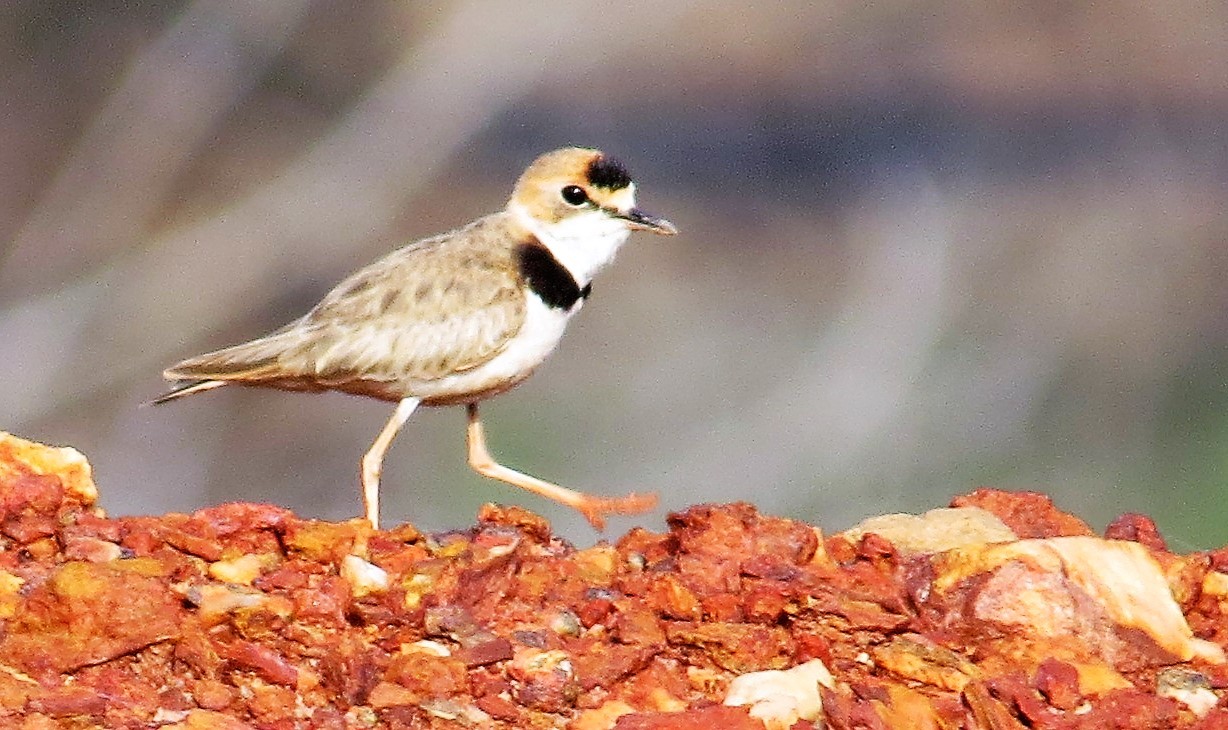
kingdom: Animalia
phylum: Chordata
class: Aves
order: Charadriiformes
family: Charadriidae
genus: Anarhynchus
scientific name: Anarhynchus
